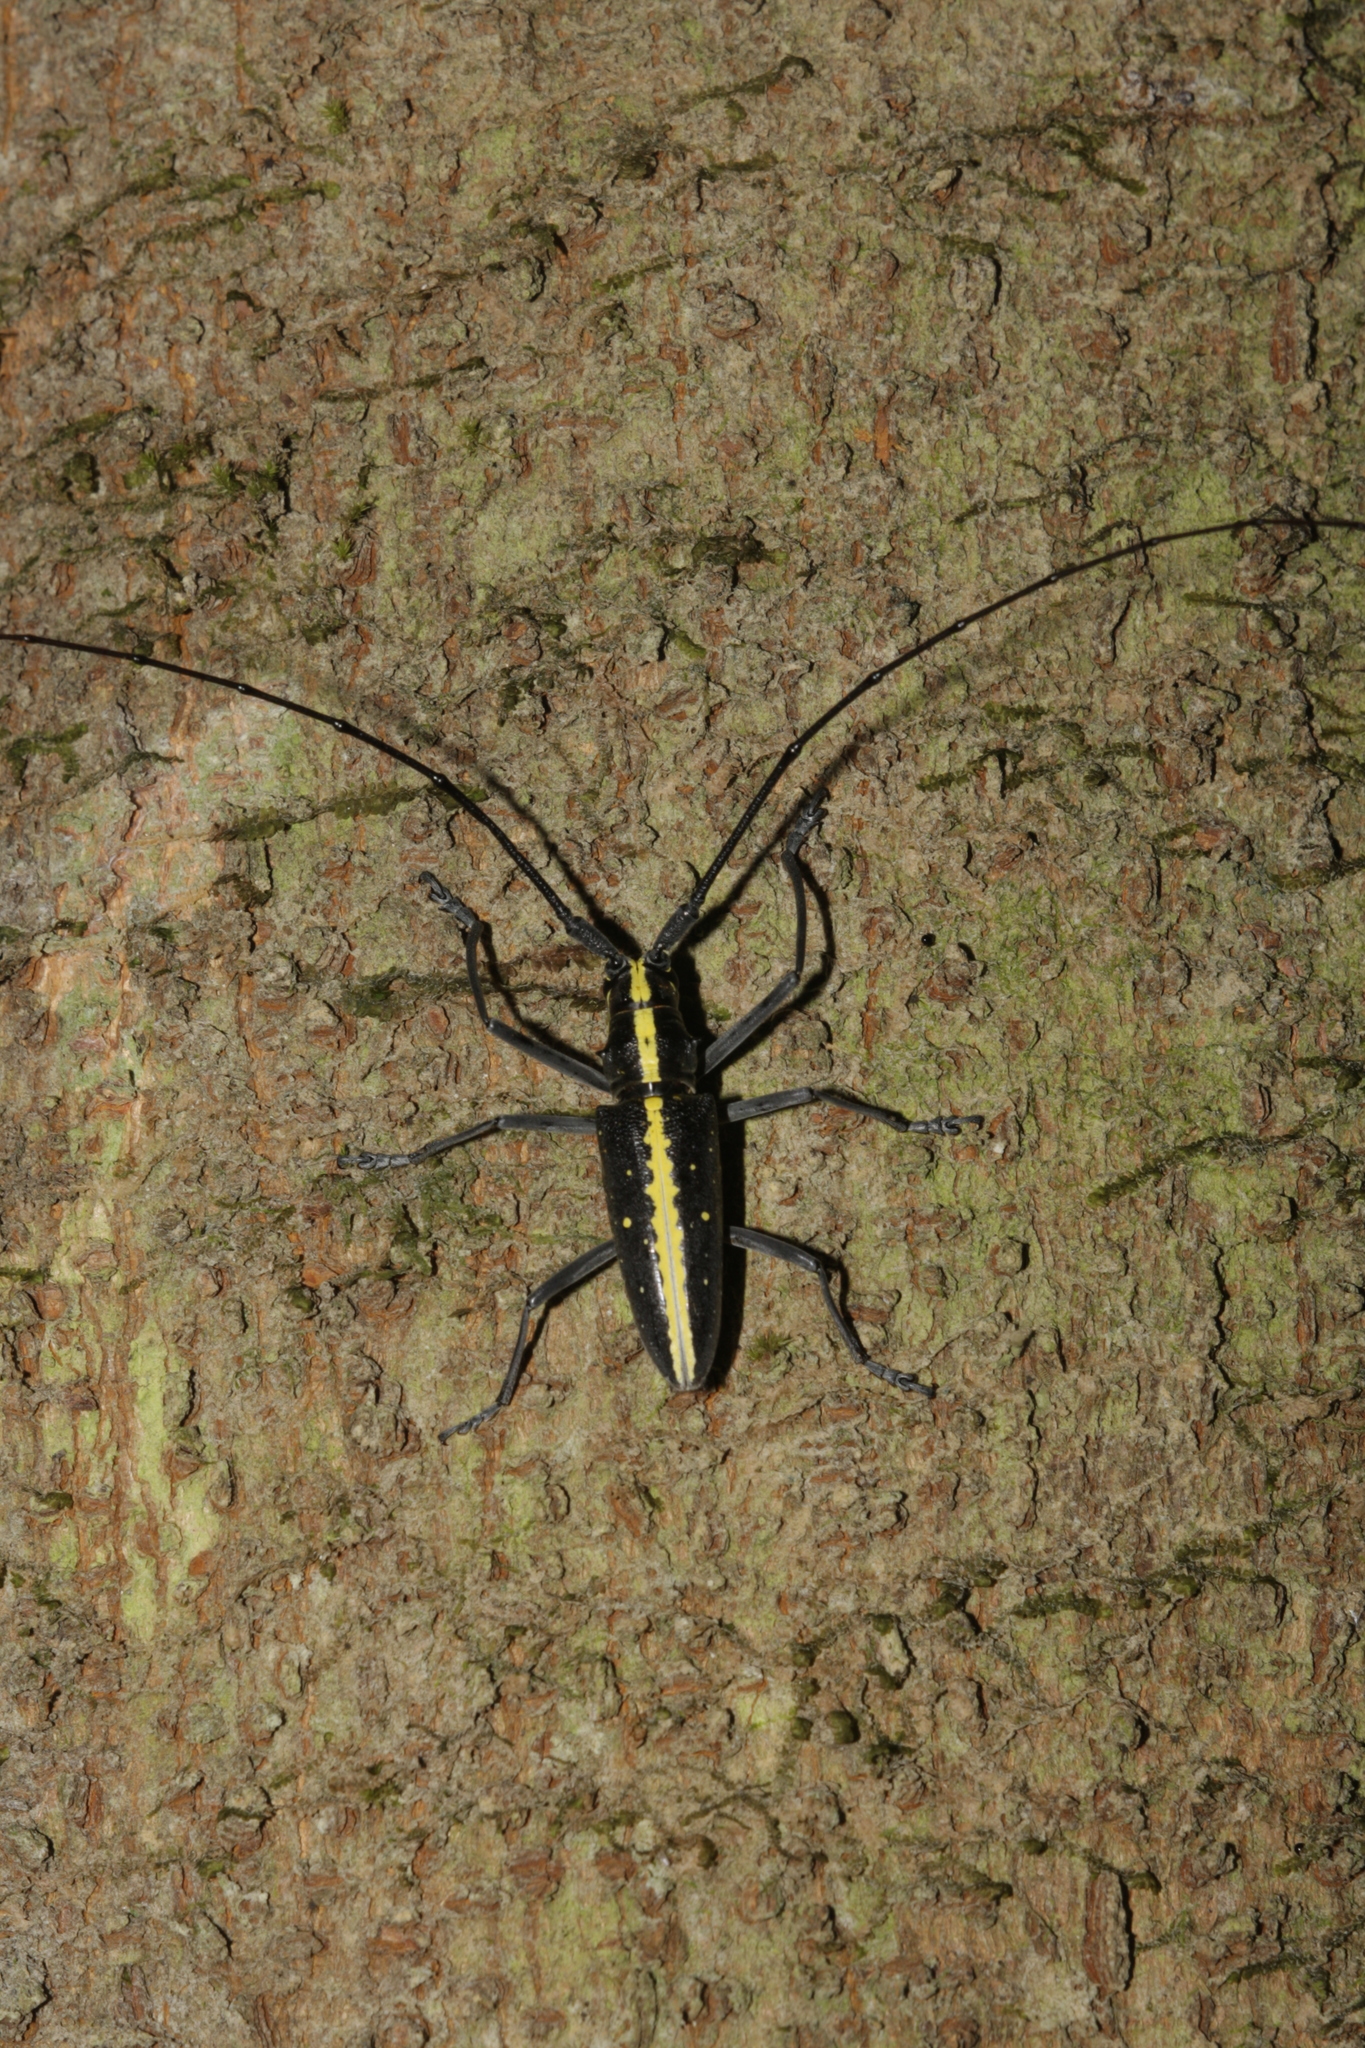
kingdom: Animalia
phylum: Arthropoda
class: Insecta
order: Coleoptera
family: Cerambycidae
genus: Taeniotes
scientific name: Taeniotes scalatus
